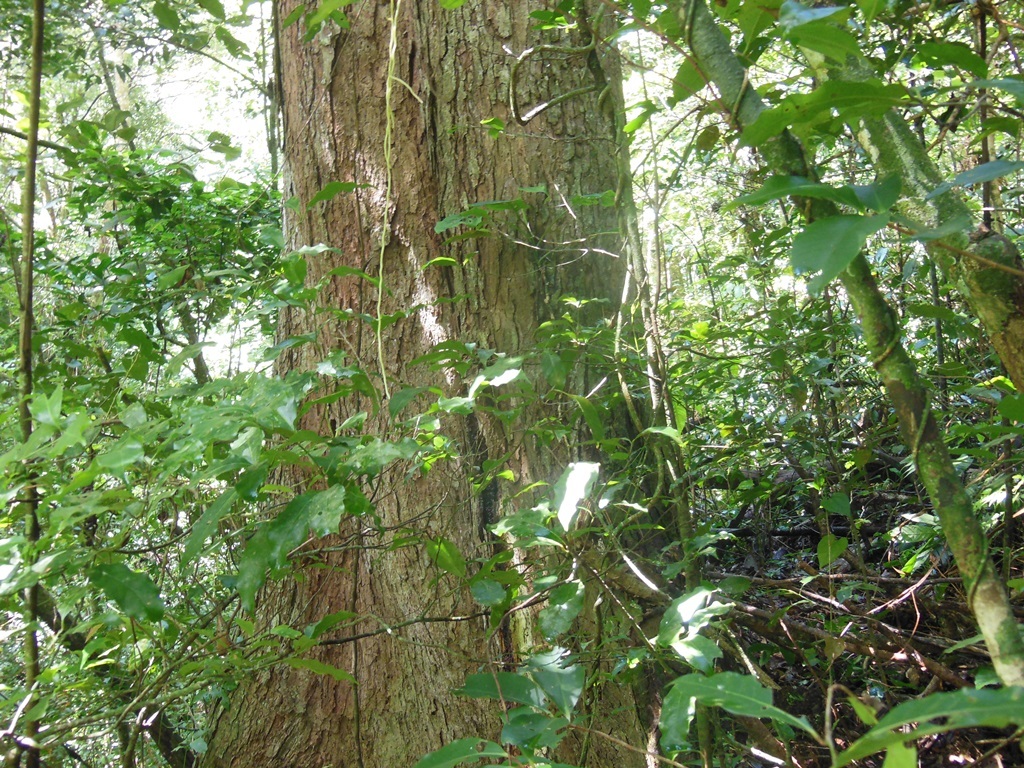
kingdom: Plantae
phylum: Tracheophyta
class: Magnoliopsida
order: Rosales
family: Ulmaceae
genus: Ulmus
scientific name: Ulmus mexicana
